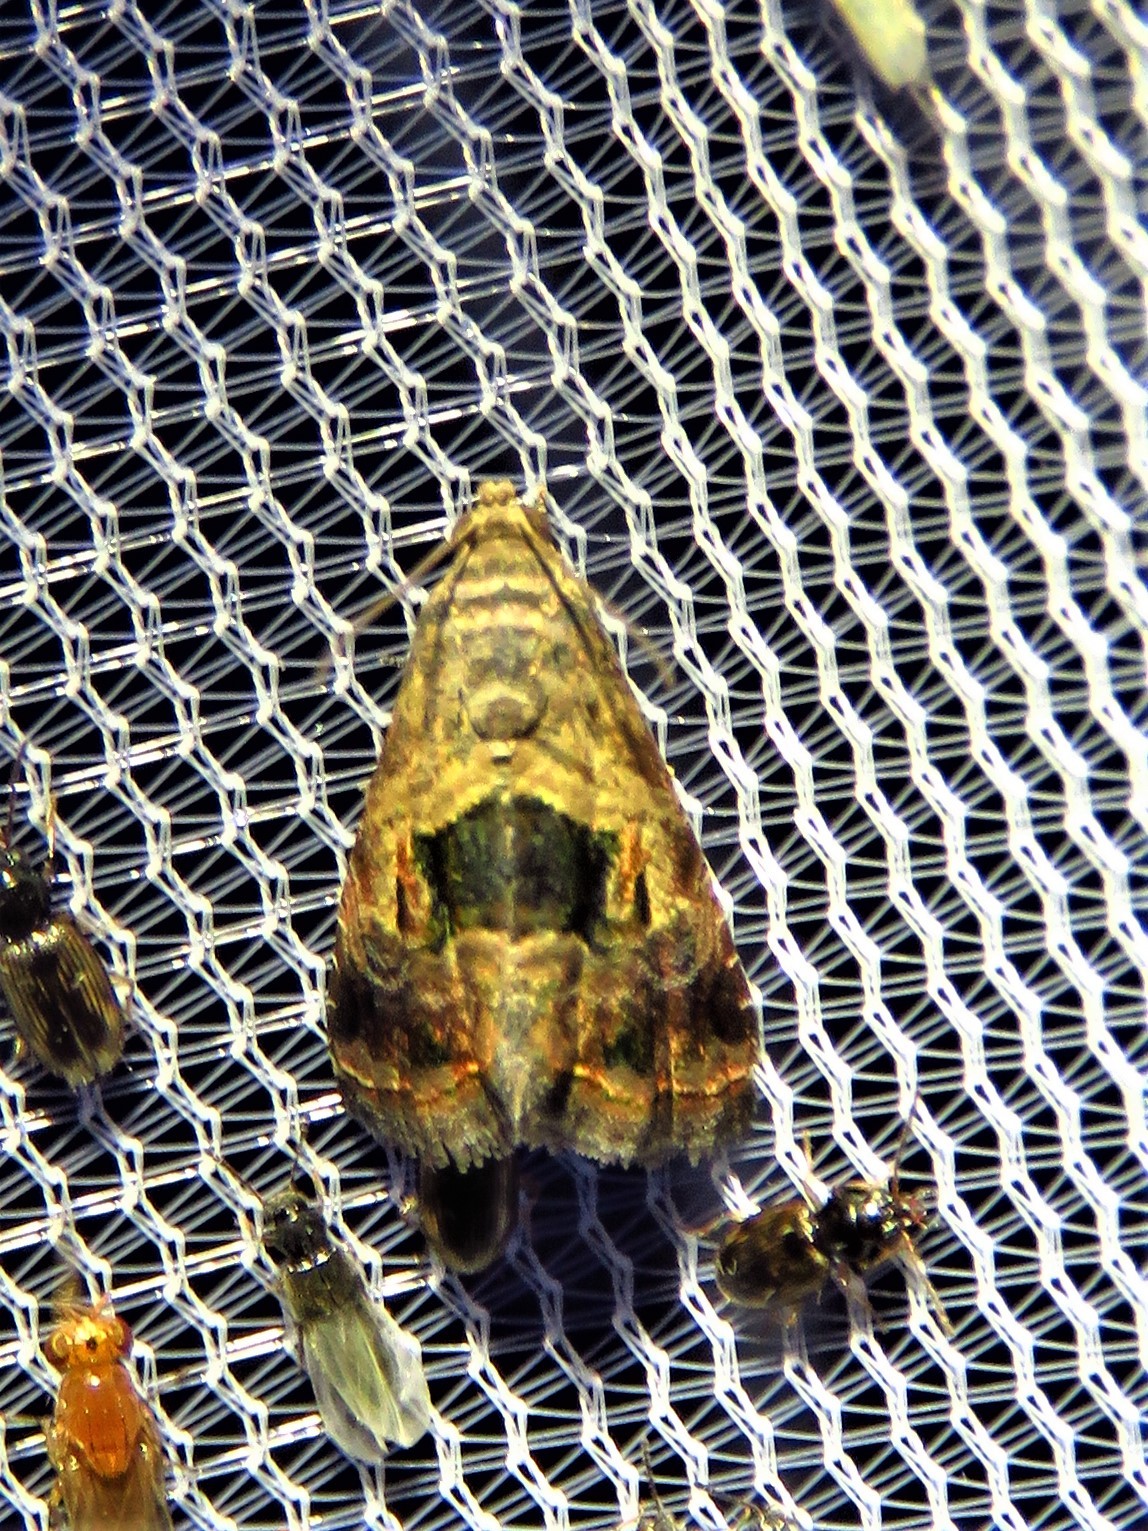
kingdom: Animalia
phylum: Arthropoda
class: Insecta
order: Lepidoptera
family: Noctuidae
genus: Tripudia
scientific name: Tripudia quadrifera
